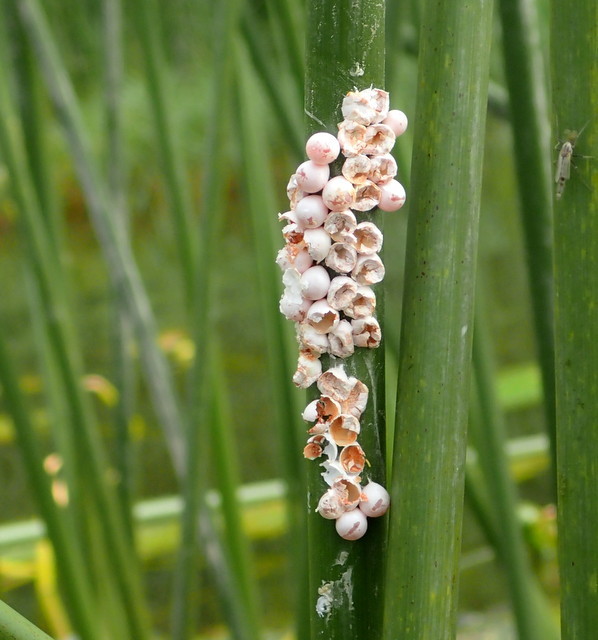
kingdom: Animalia
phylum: Mollusca
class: Gastropoda
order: Architaenioglossa
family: Ampullariidae
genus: Pomacea
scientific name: Pomacea paludosa
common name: Florida applesnail
